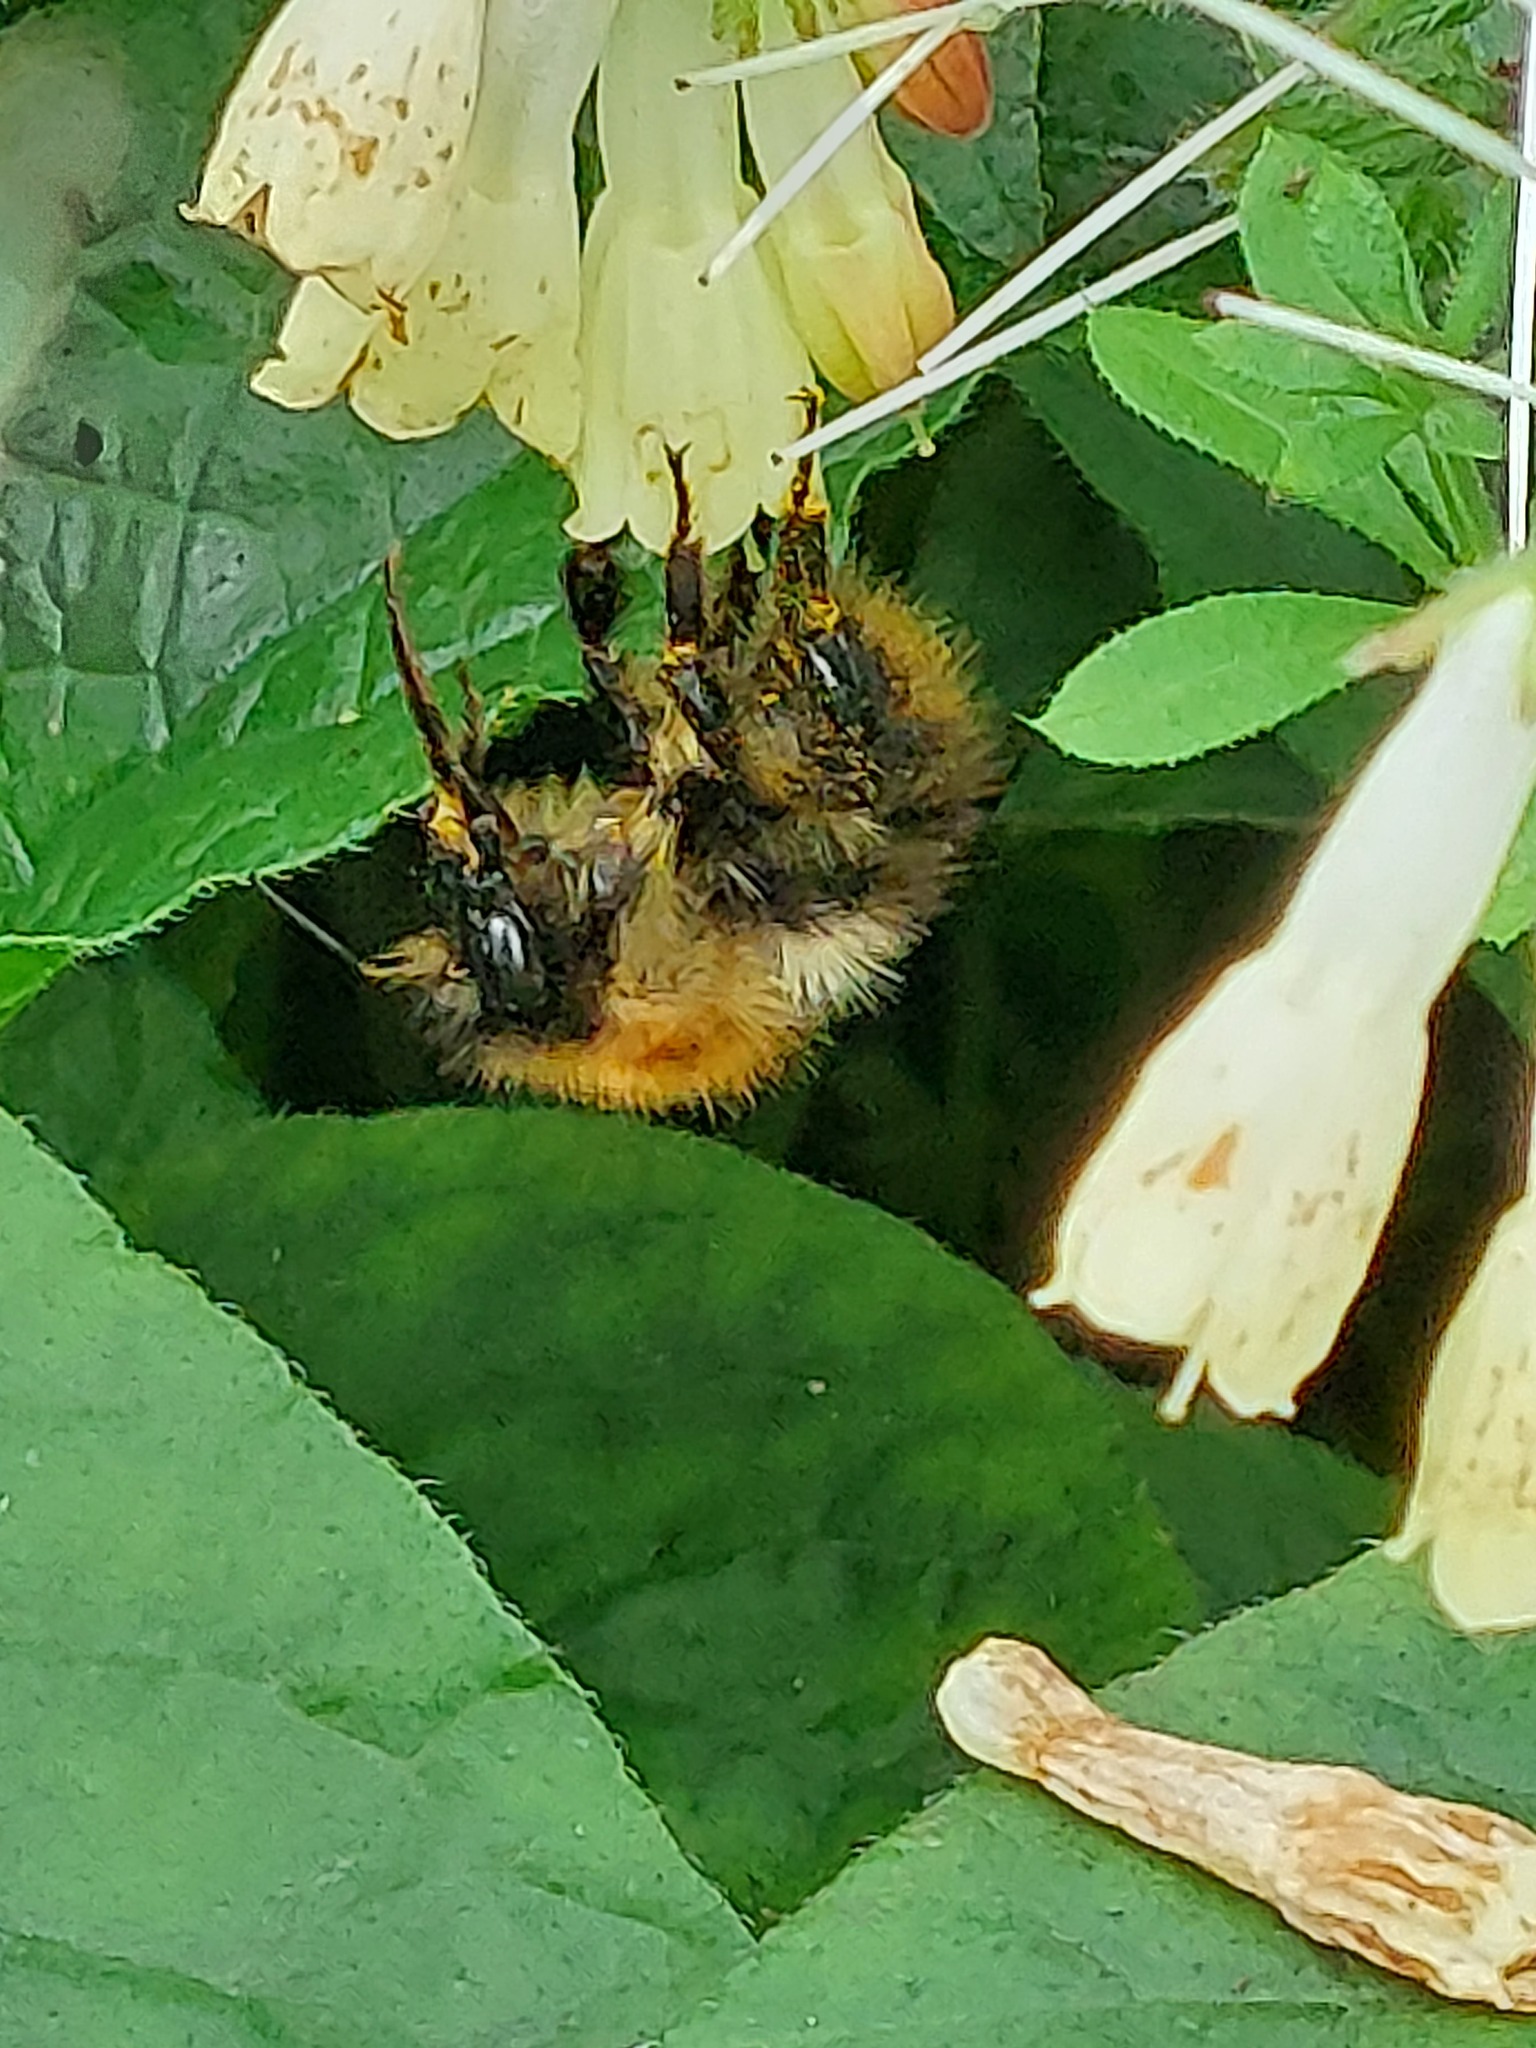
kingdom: Animalia
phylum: Arthropoda
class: Insecta
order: Hymenoptera
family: Apidae
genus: Bombus
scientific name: Bombus pascuorum
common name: Common carder bee
